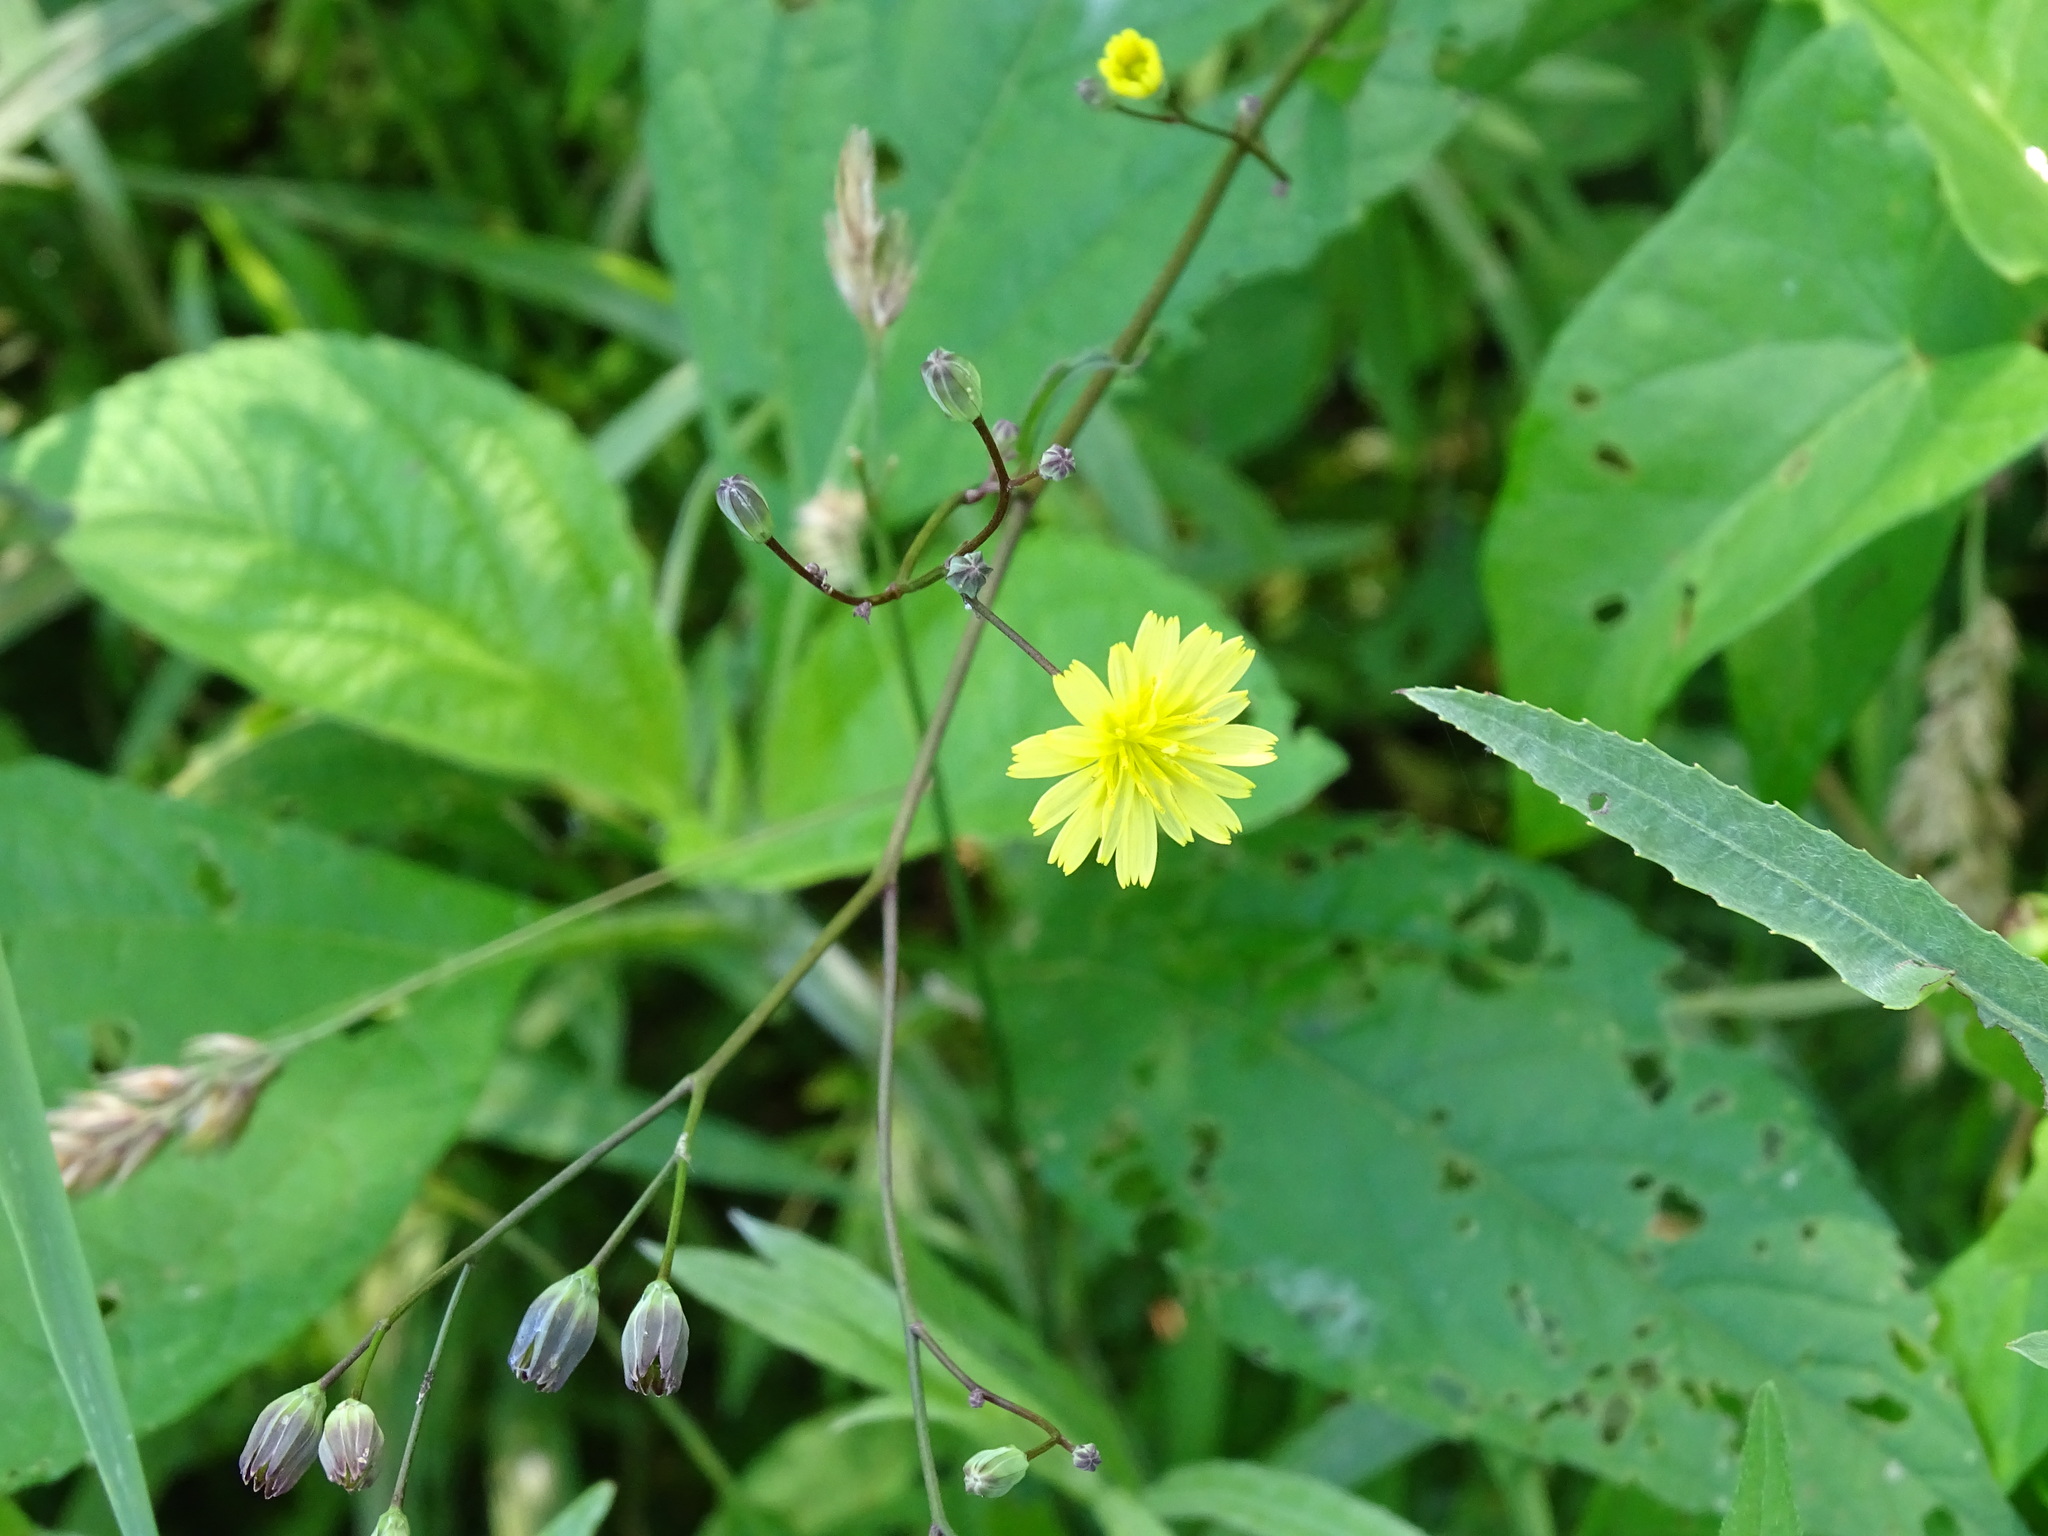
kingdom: Plantae
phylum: Tracheophyta
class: Magnoliopsida
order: Asterales
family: Asteraceae
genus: Lapsana
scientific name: Lapsana communis
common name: Nipplewort
